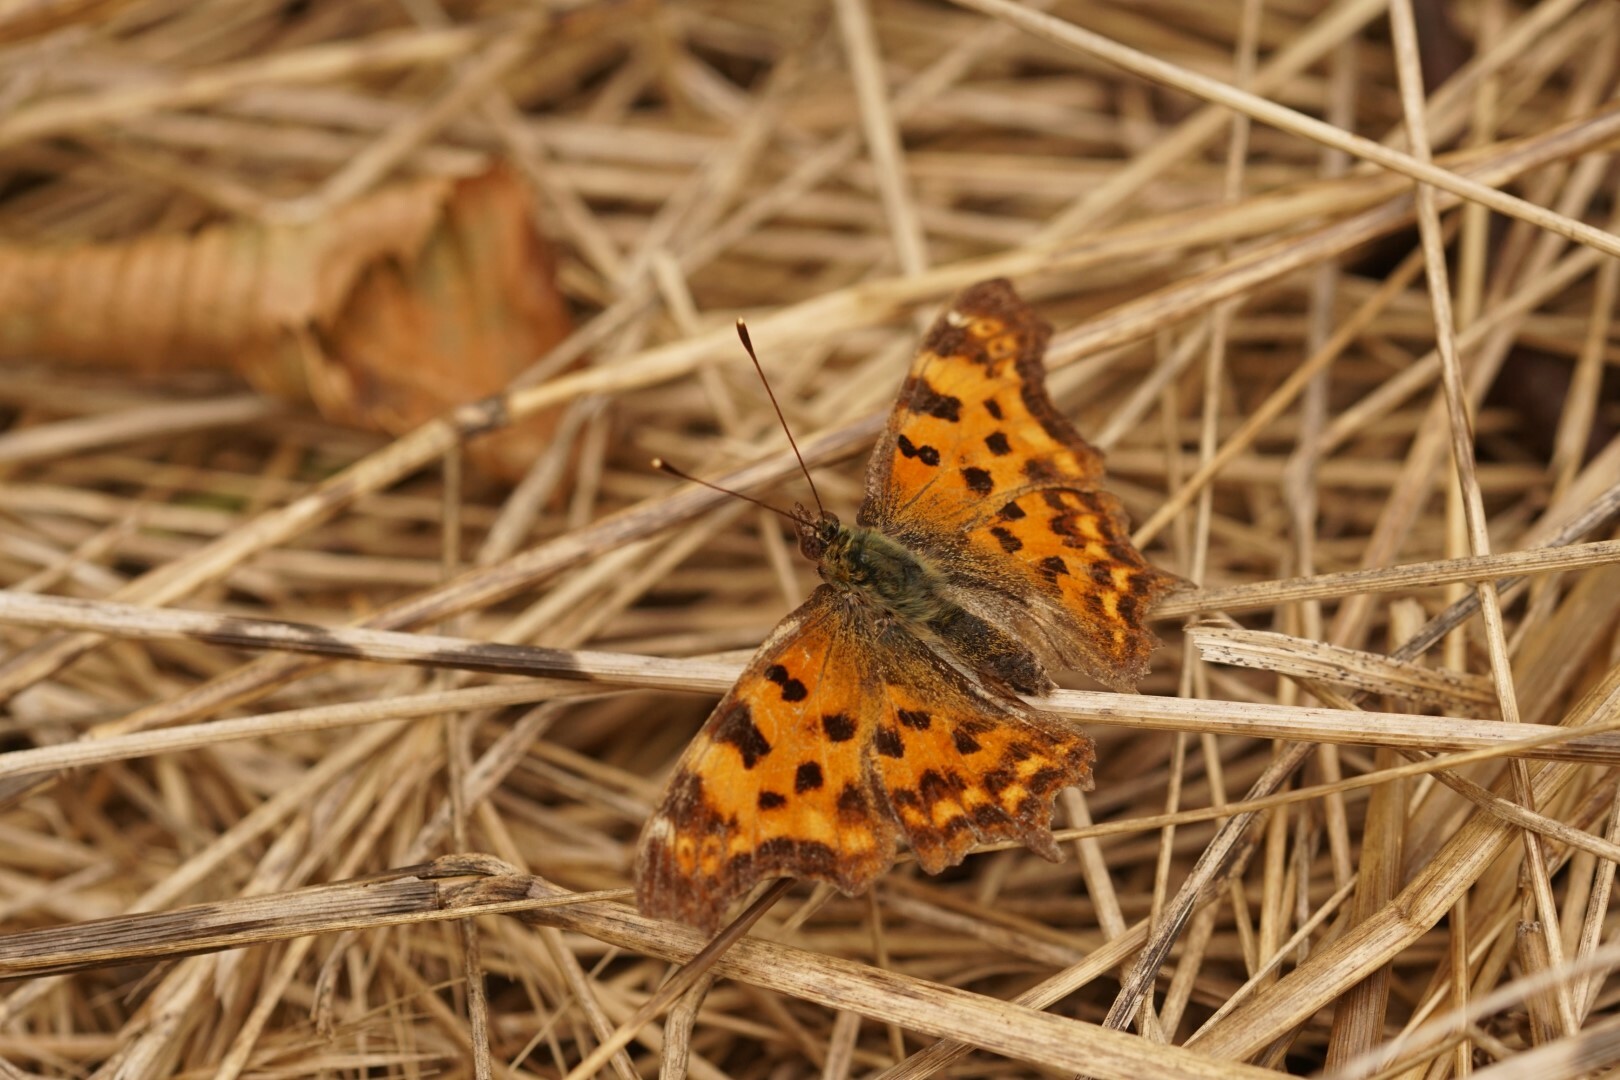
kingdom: Animalia
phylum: Arthropoda
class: Insecta
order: Lepidoptera
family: Nymphalidae
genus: Polygonia
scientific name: Polygonia c-album
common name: Comma
